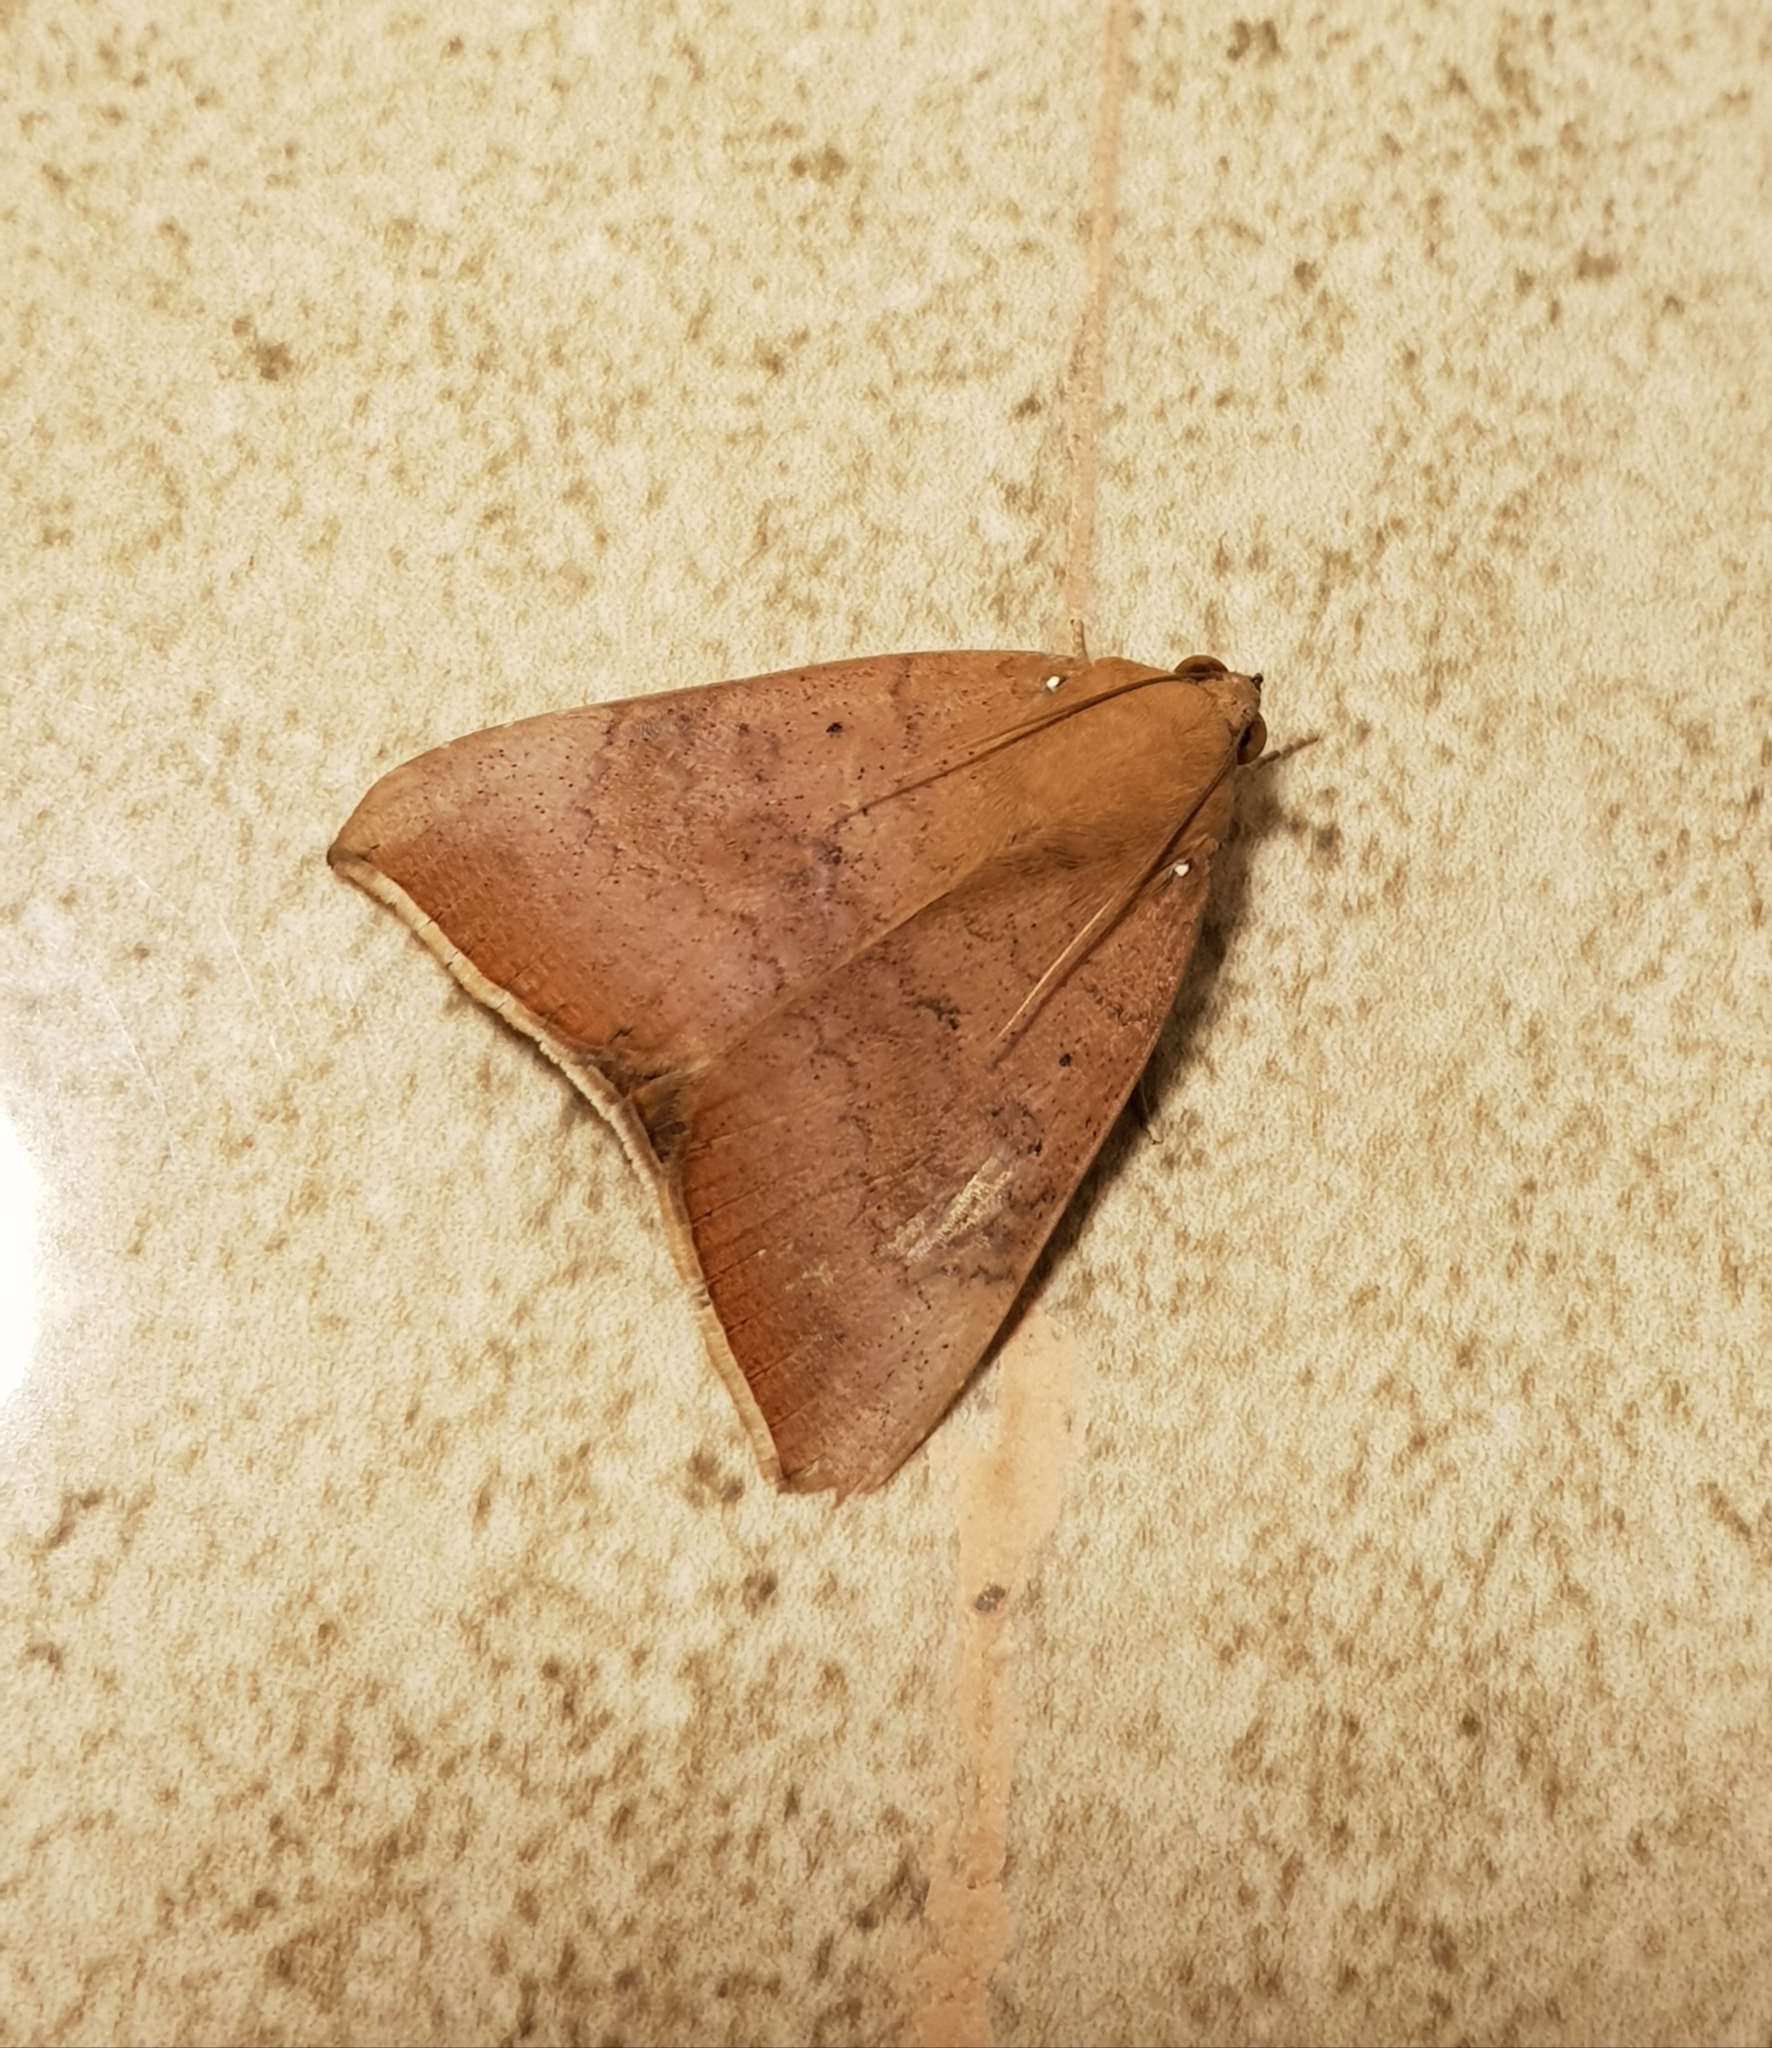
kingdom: Animalia
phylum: Arthropoda
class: Insecta
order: Lepidoptera
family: Erebidae
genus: Achaea
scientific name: Achaea serva
